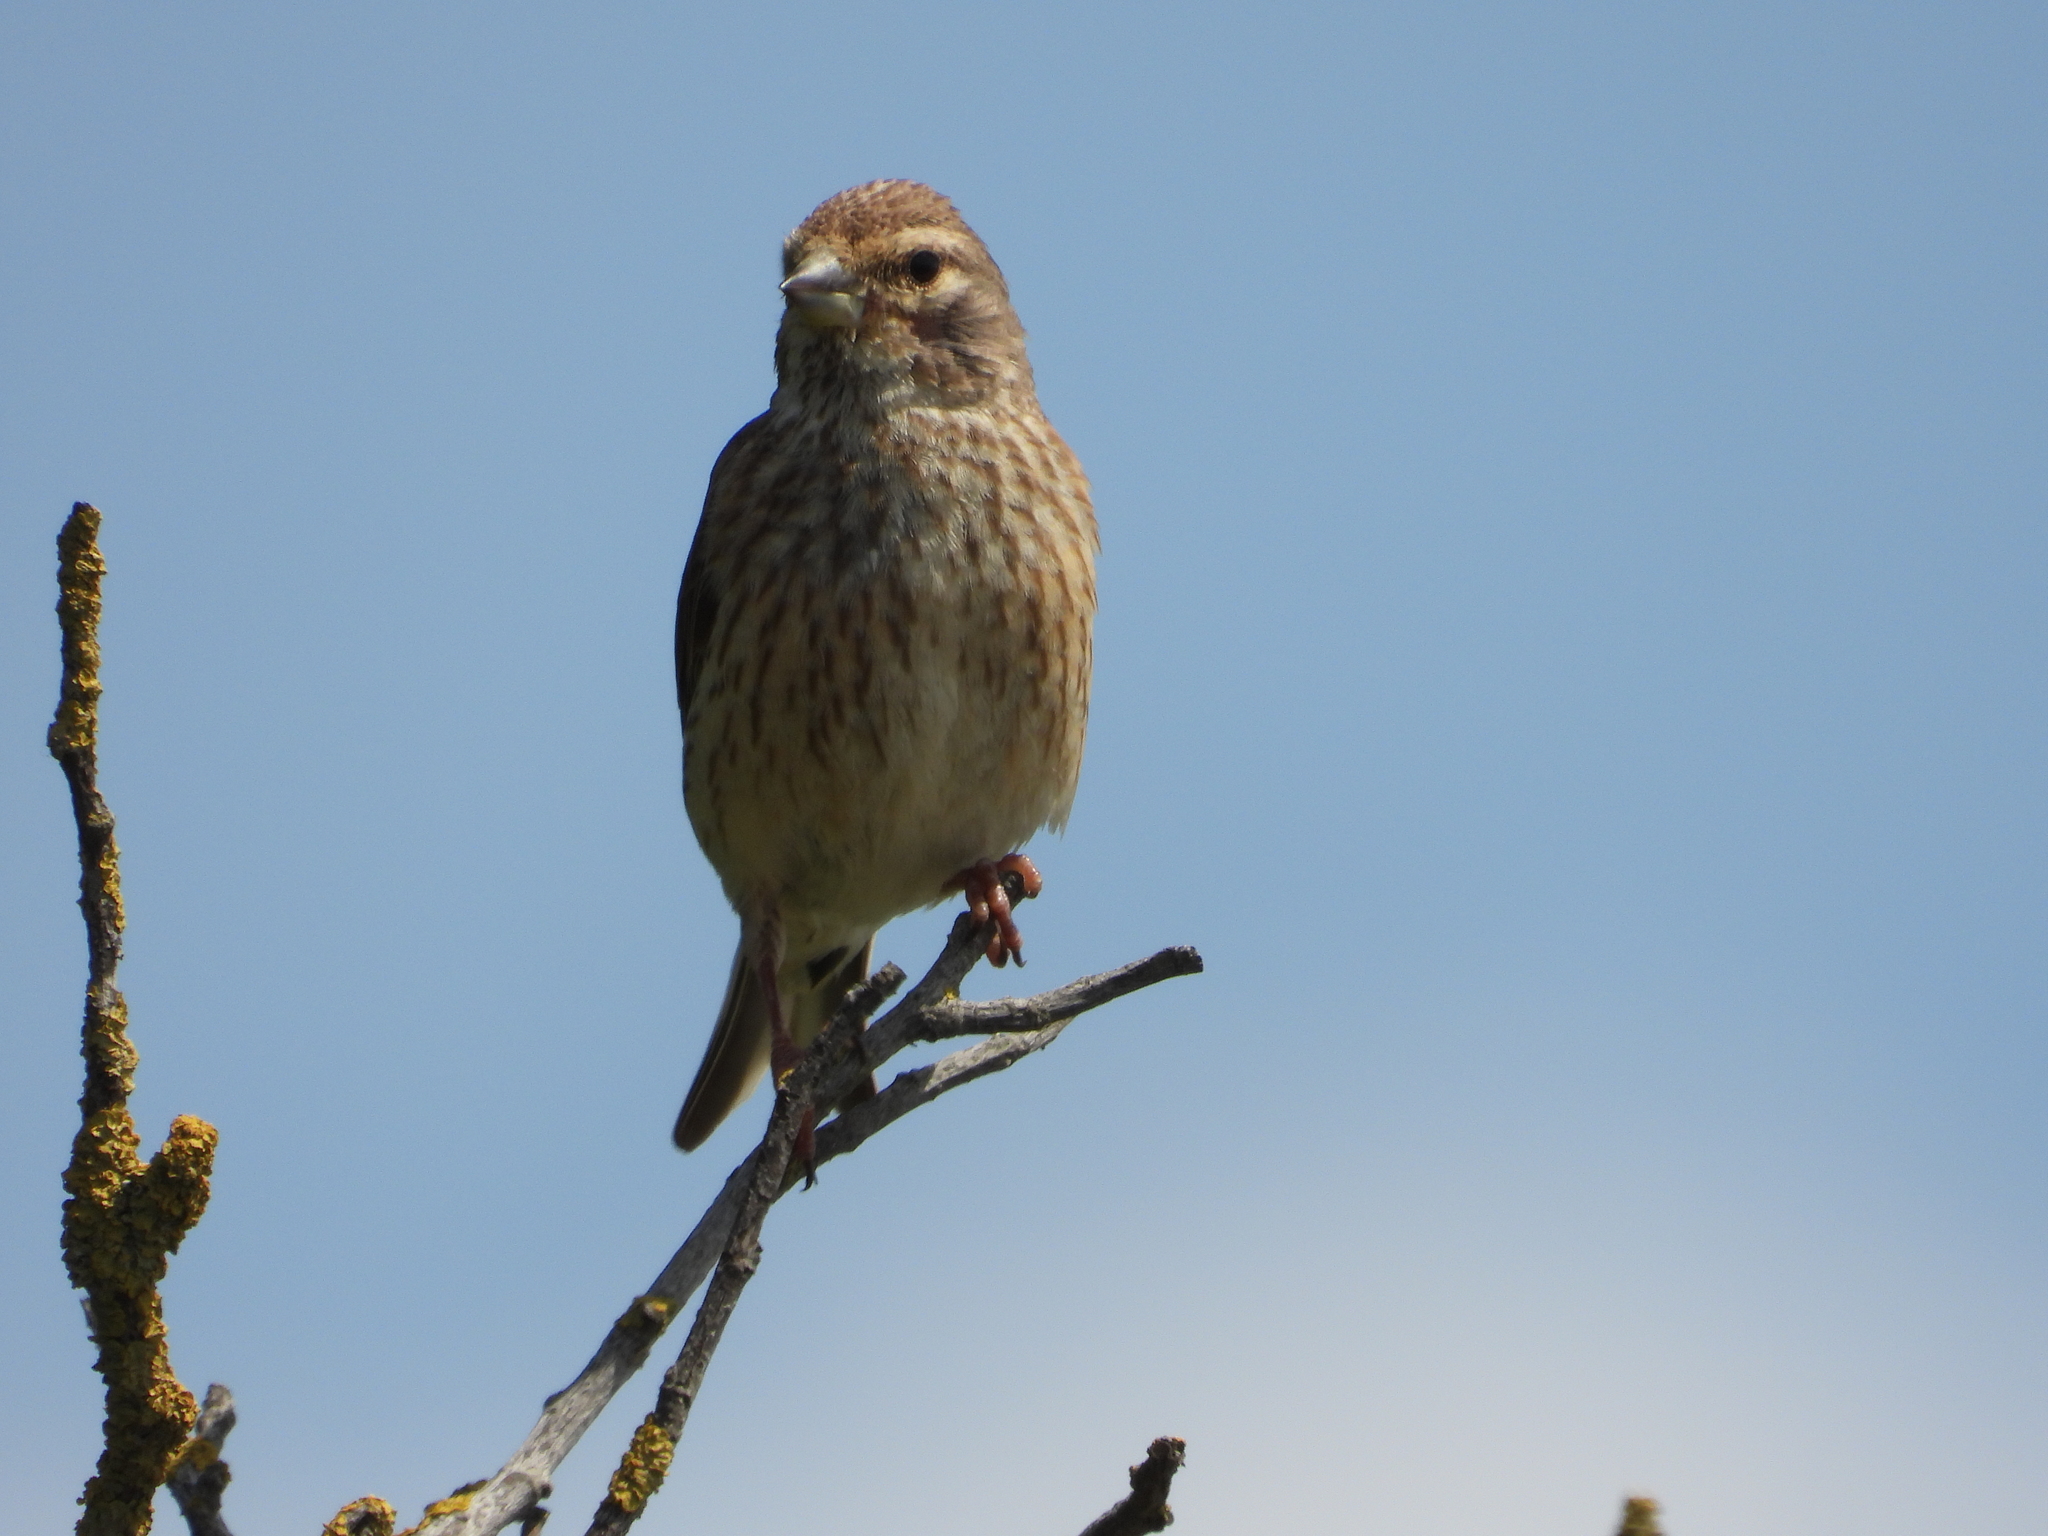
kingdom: Animalia
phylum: Chordata
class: Aves
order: Passeriformes
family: Fringillidae
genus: Linaria
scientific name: Linaria cannabina
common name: Common linnet
